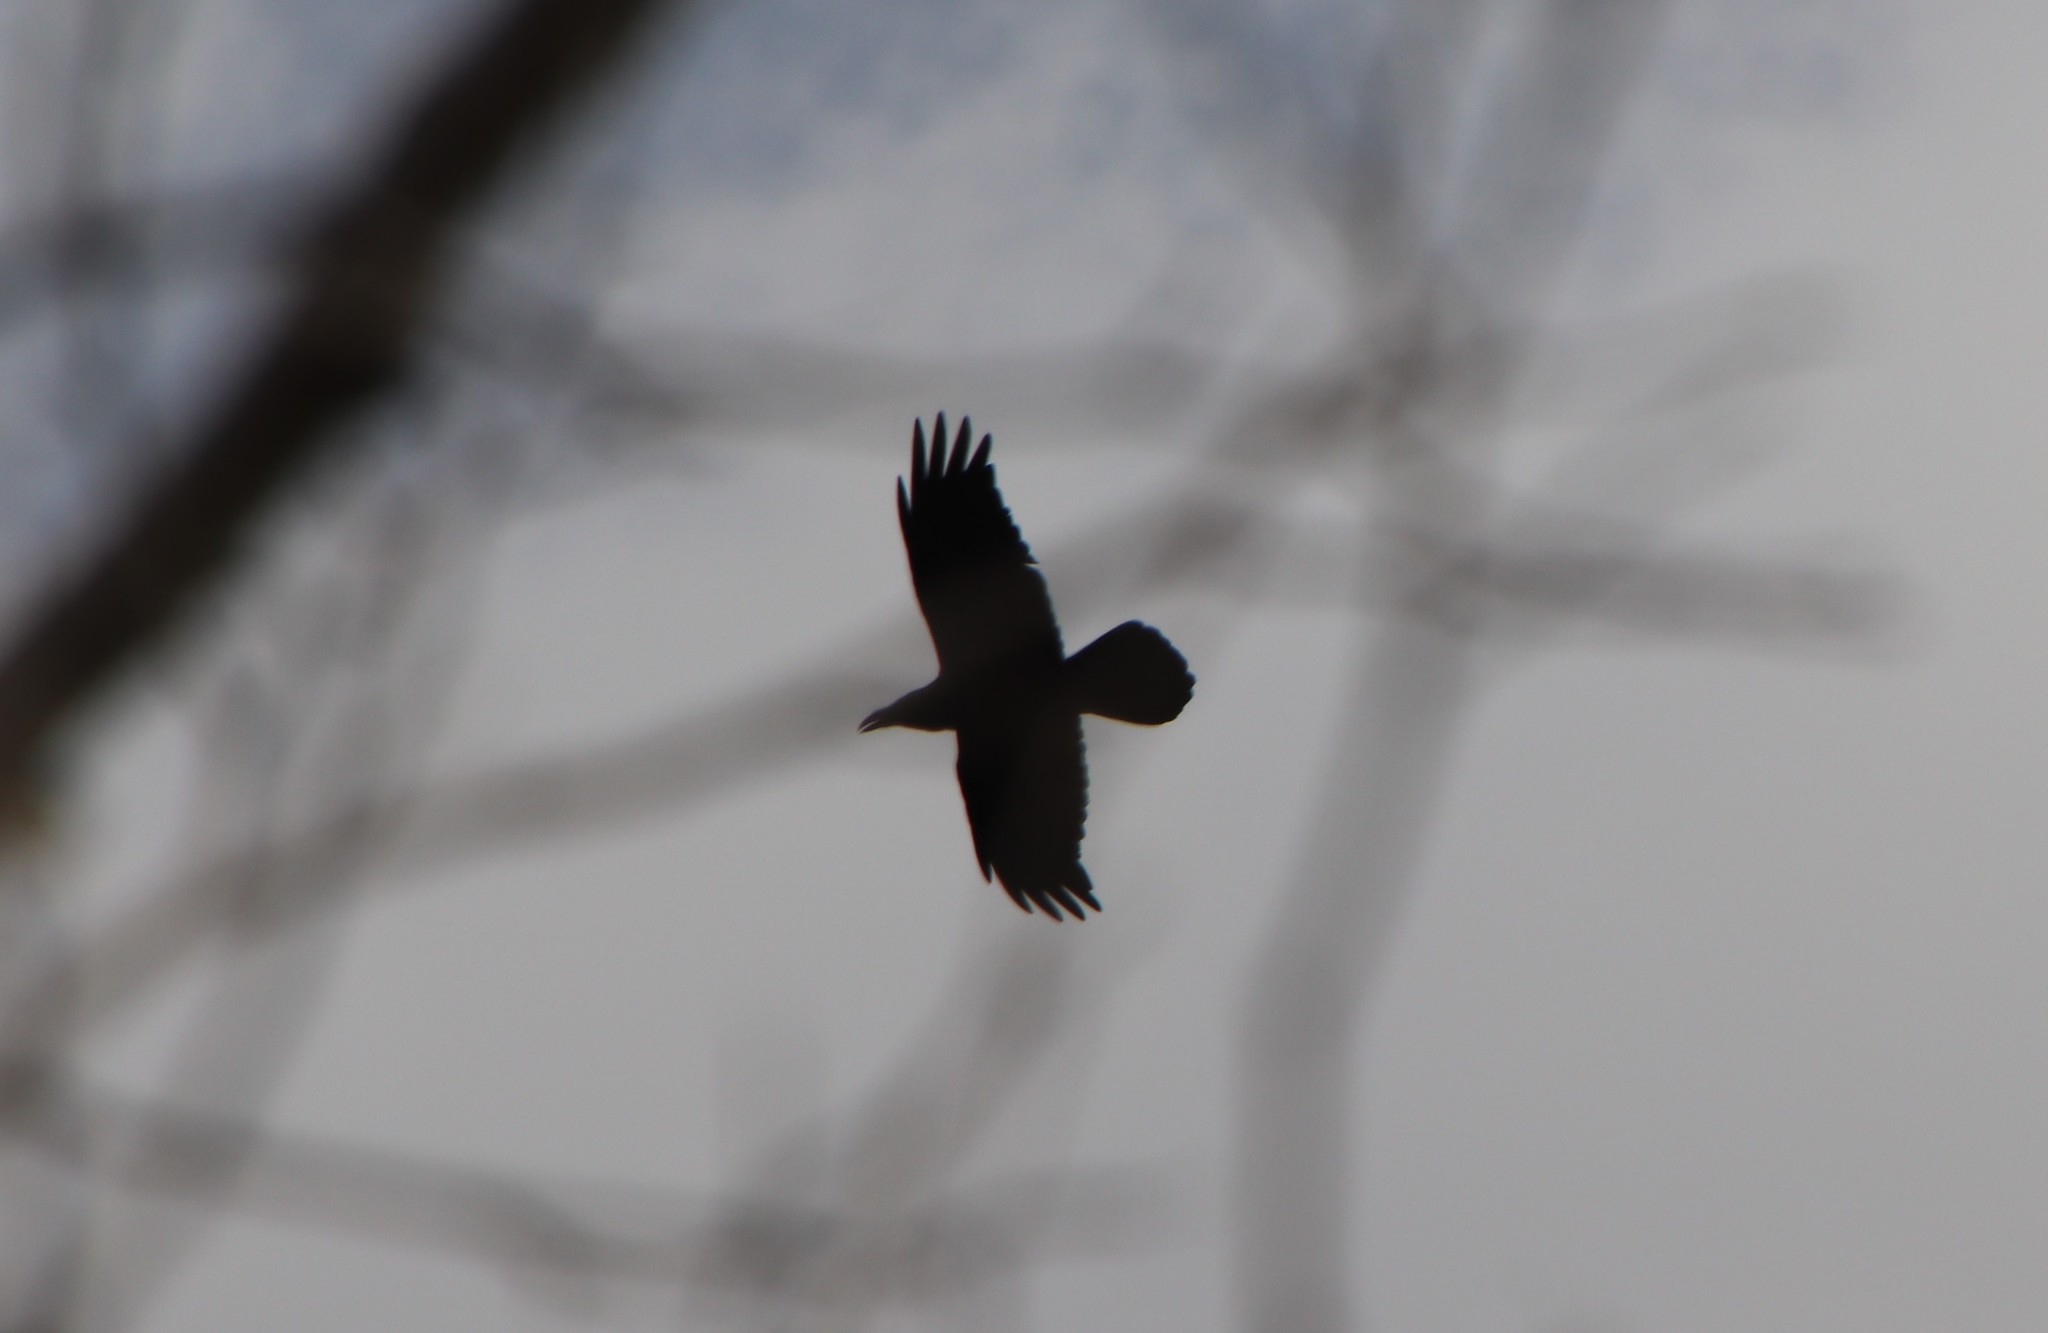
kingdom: Animalia
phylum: Chordata
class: Aves
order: Passeriformes
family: Corvidae
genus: Corvus
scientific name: Corvus corax
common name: Common raven
